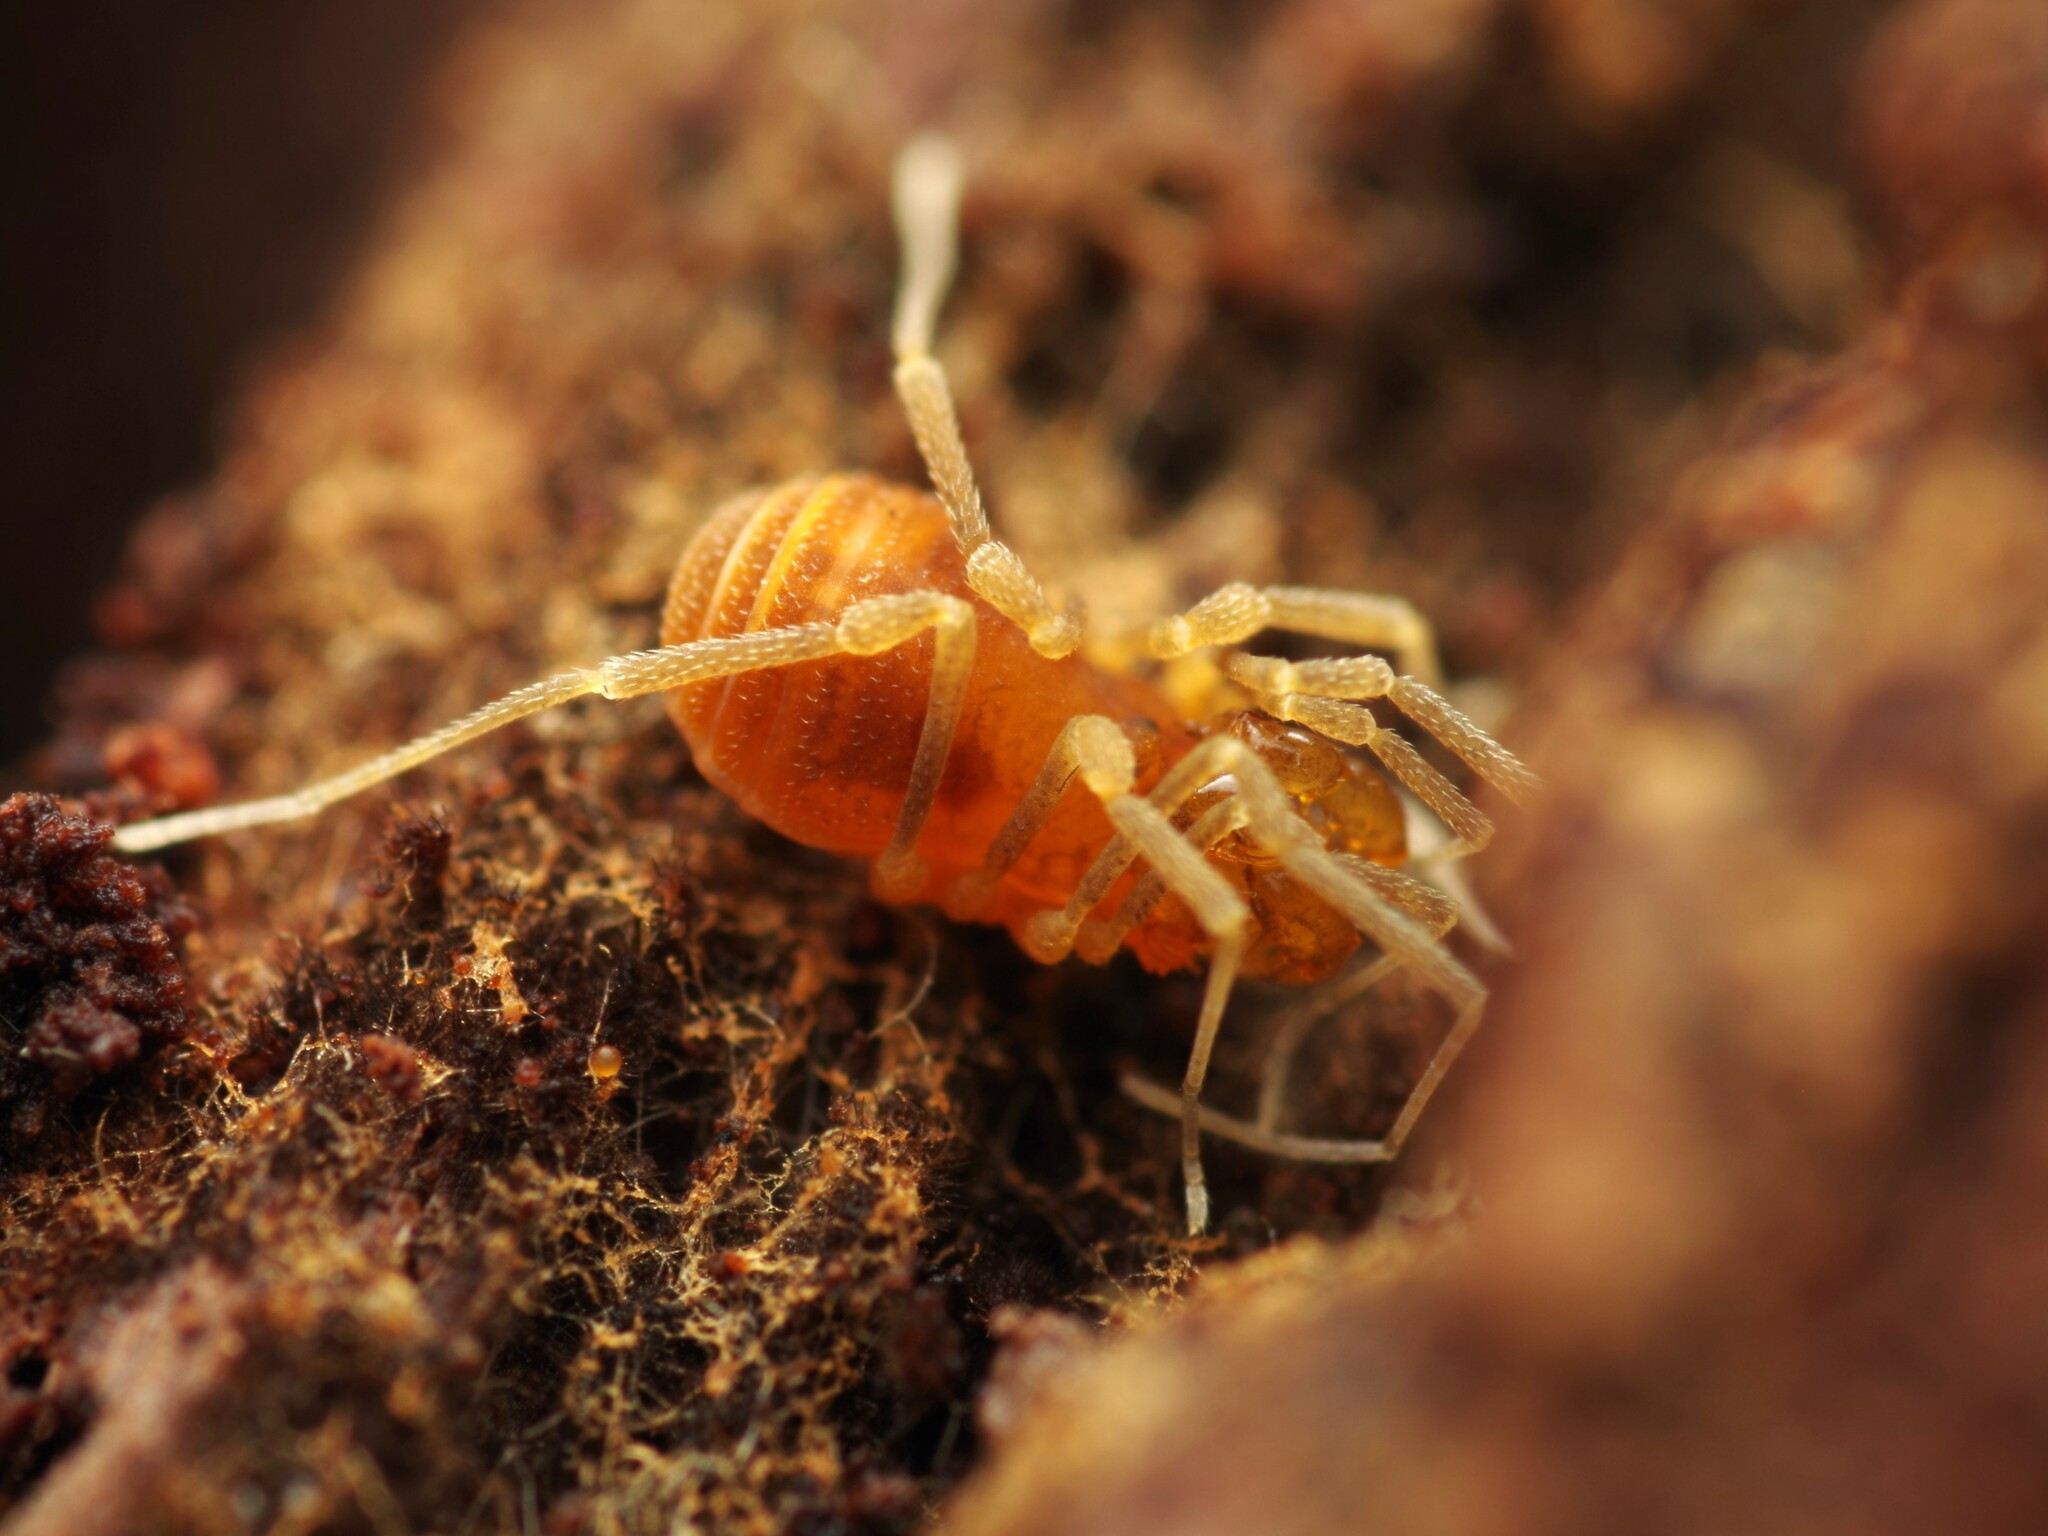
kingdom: Animalia
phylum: Arthropoda
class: Arachnida
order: Opiliones
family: Cladonychiidae
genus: Holoscotolemon
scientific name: Holoscotolemon querilhaci
